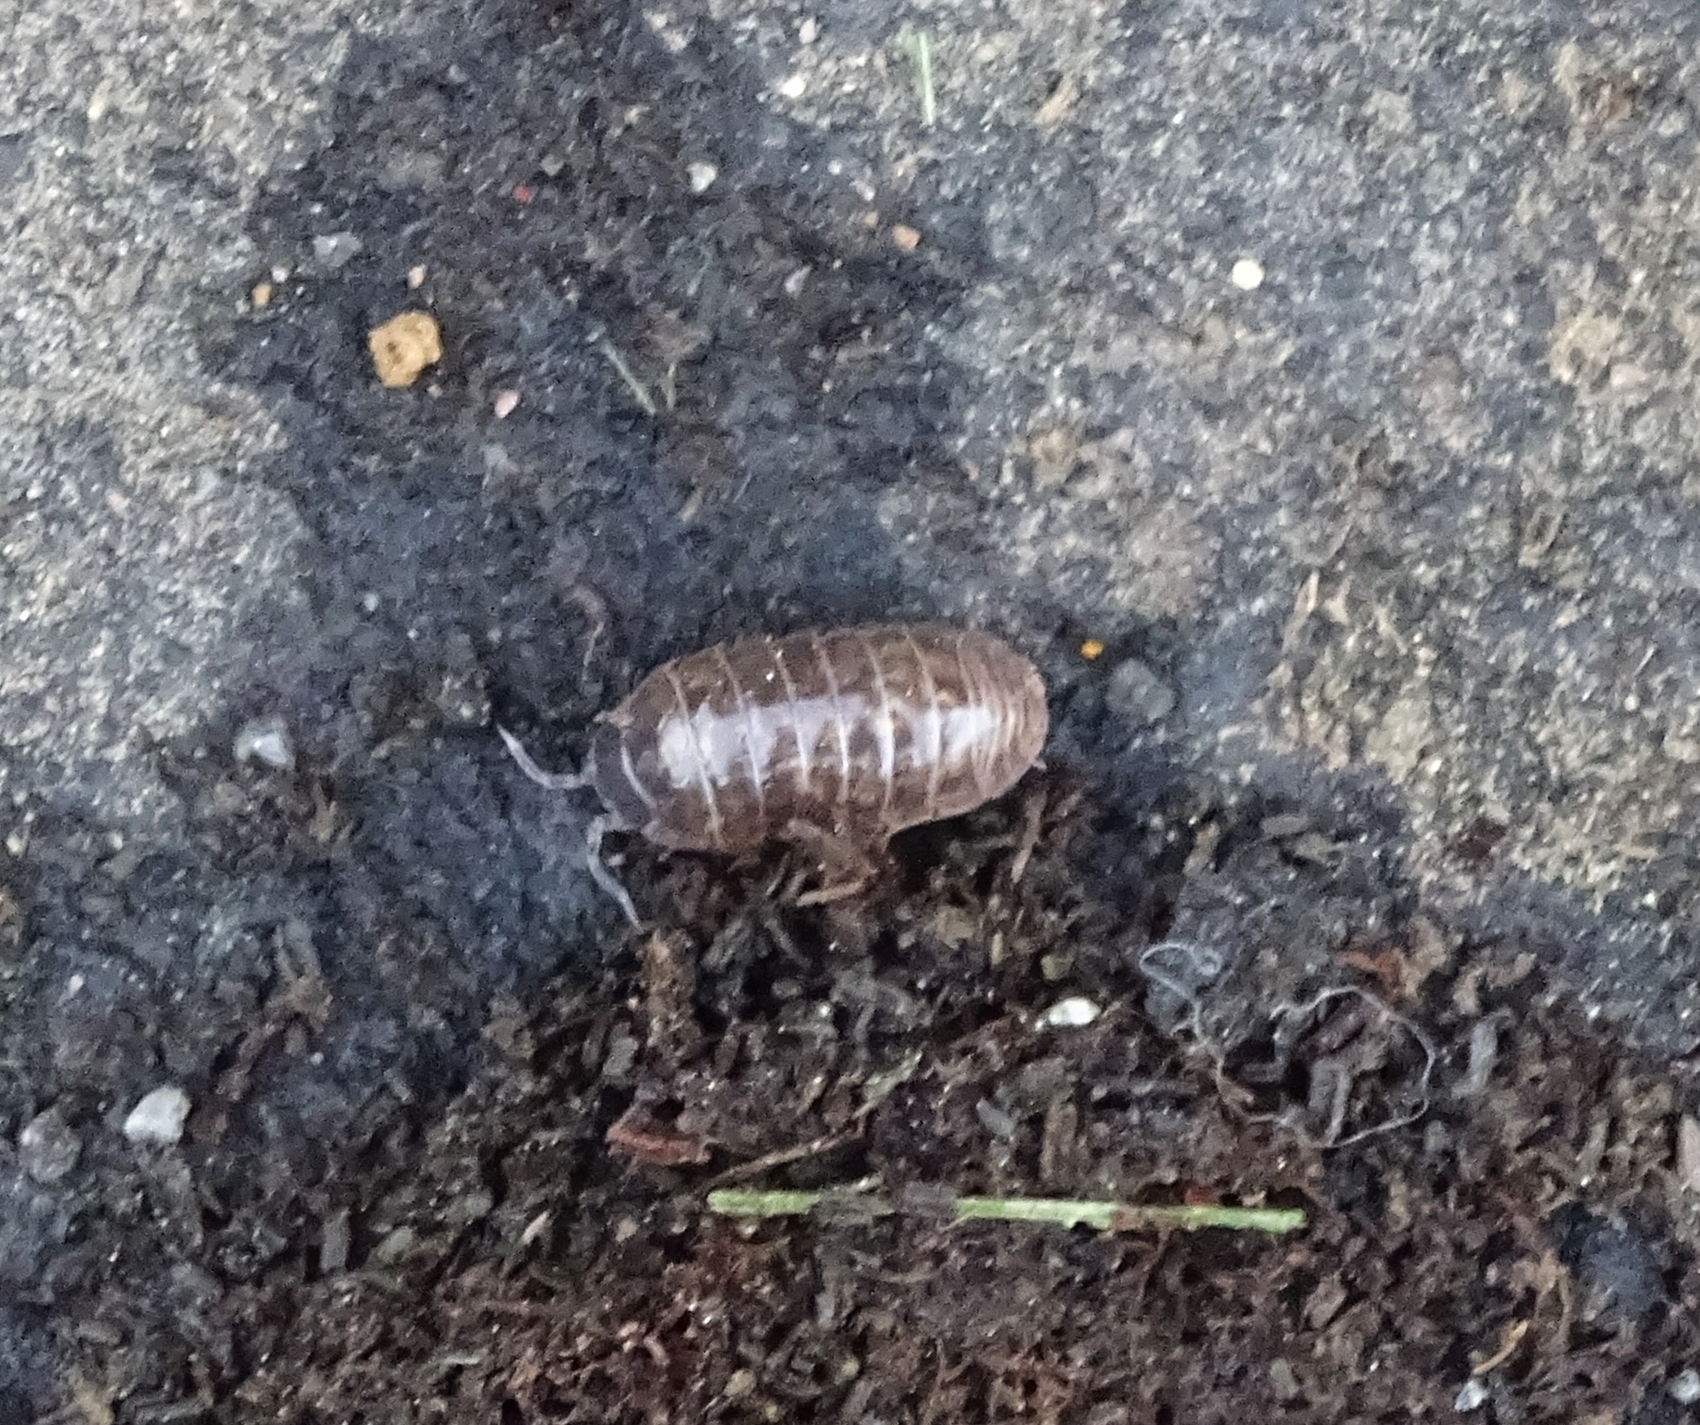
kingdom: Animalia
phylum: Arthropoda
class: Malacostraca
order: Isopoda
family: Armadillidiidae
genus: Armadillidium
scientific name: Armadillidium vulgare
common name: Common pill woodlouse
